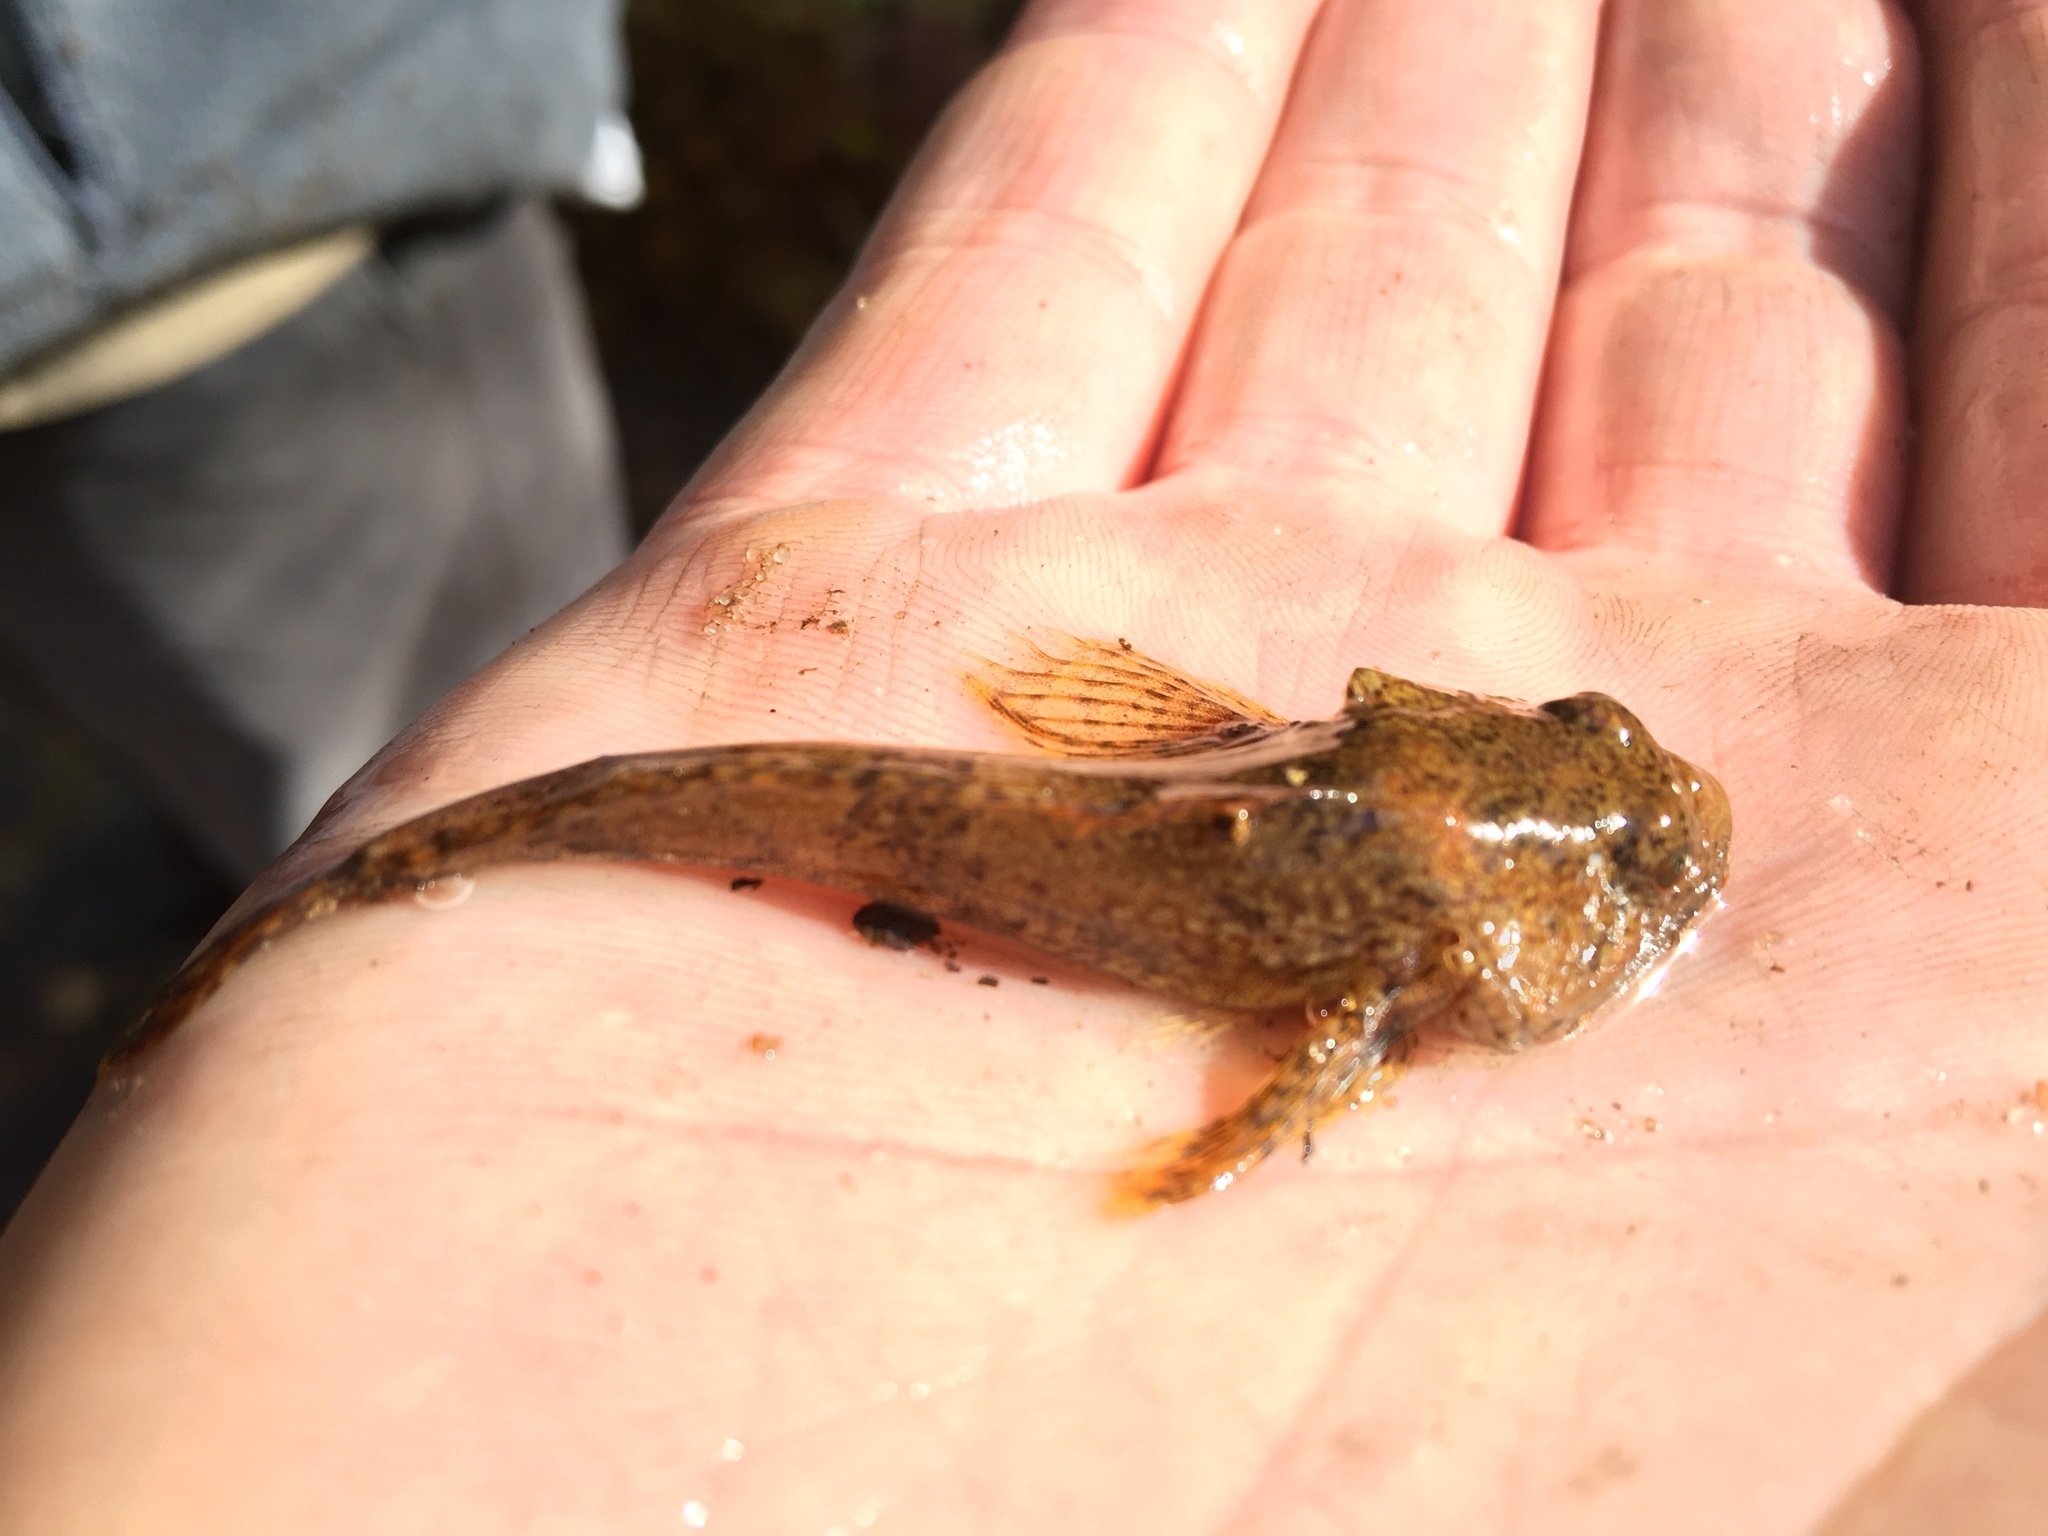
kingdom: Animalia
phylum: Chordata
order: Scorpaeniformes
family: Cottidae
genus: Cottus
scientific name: Cottus bairdii
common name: Mottled sculpin
